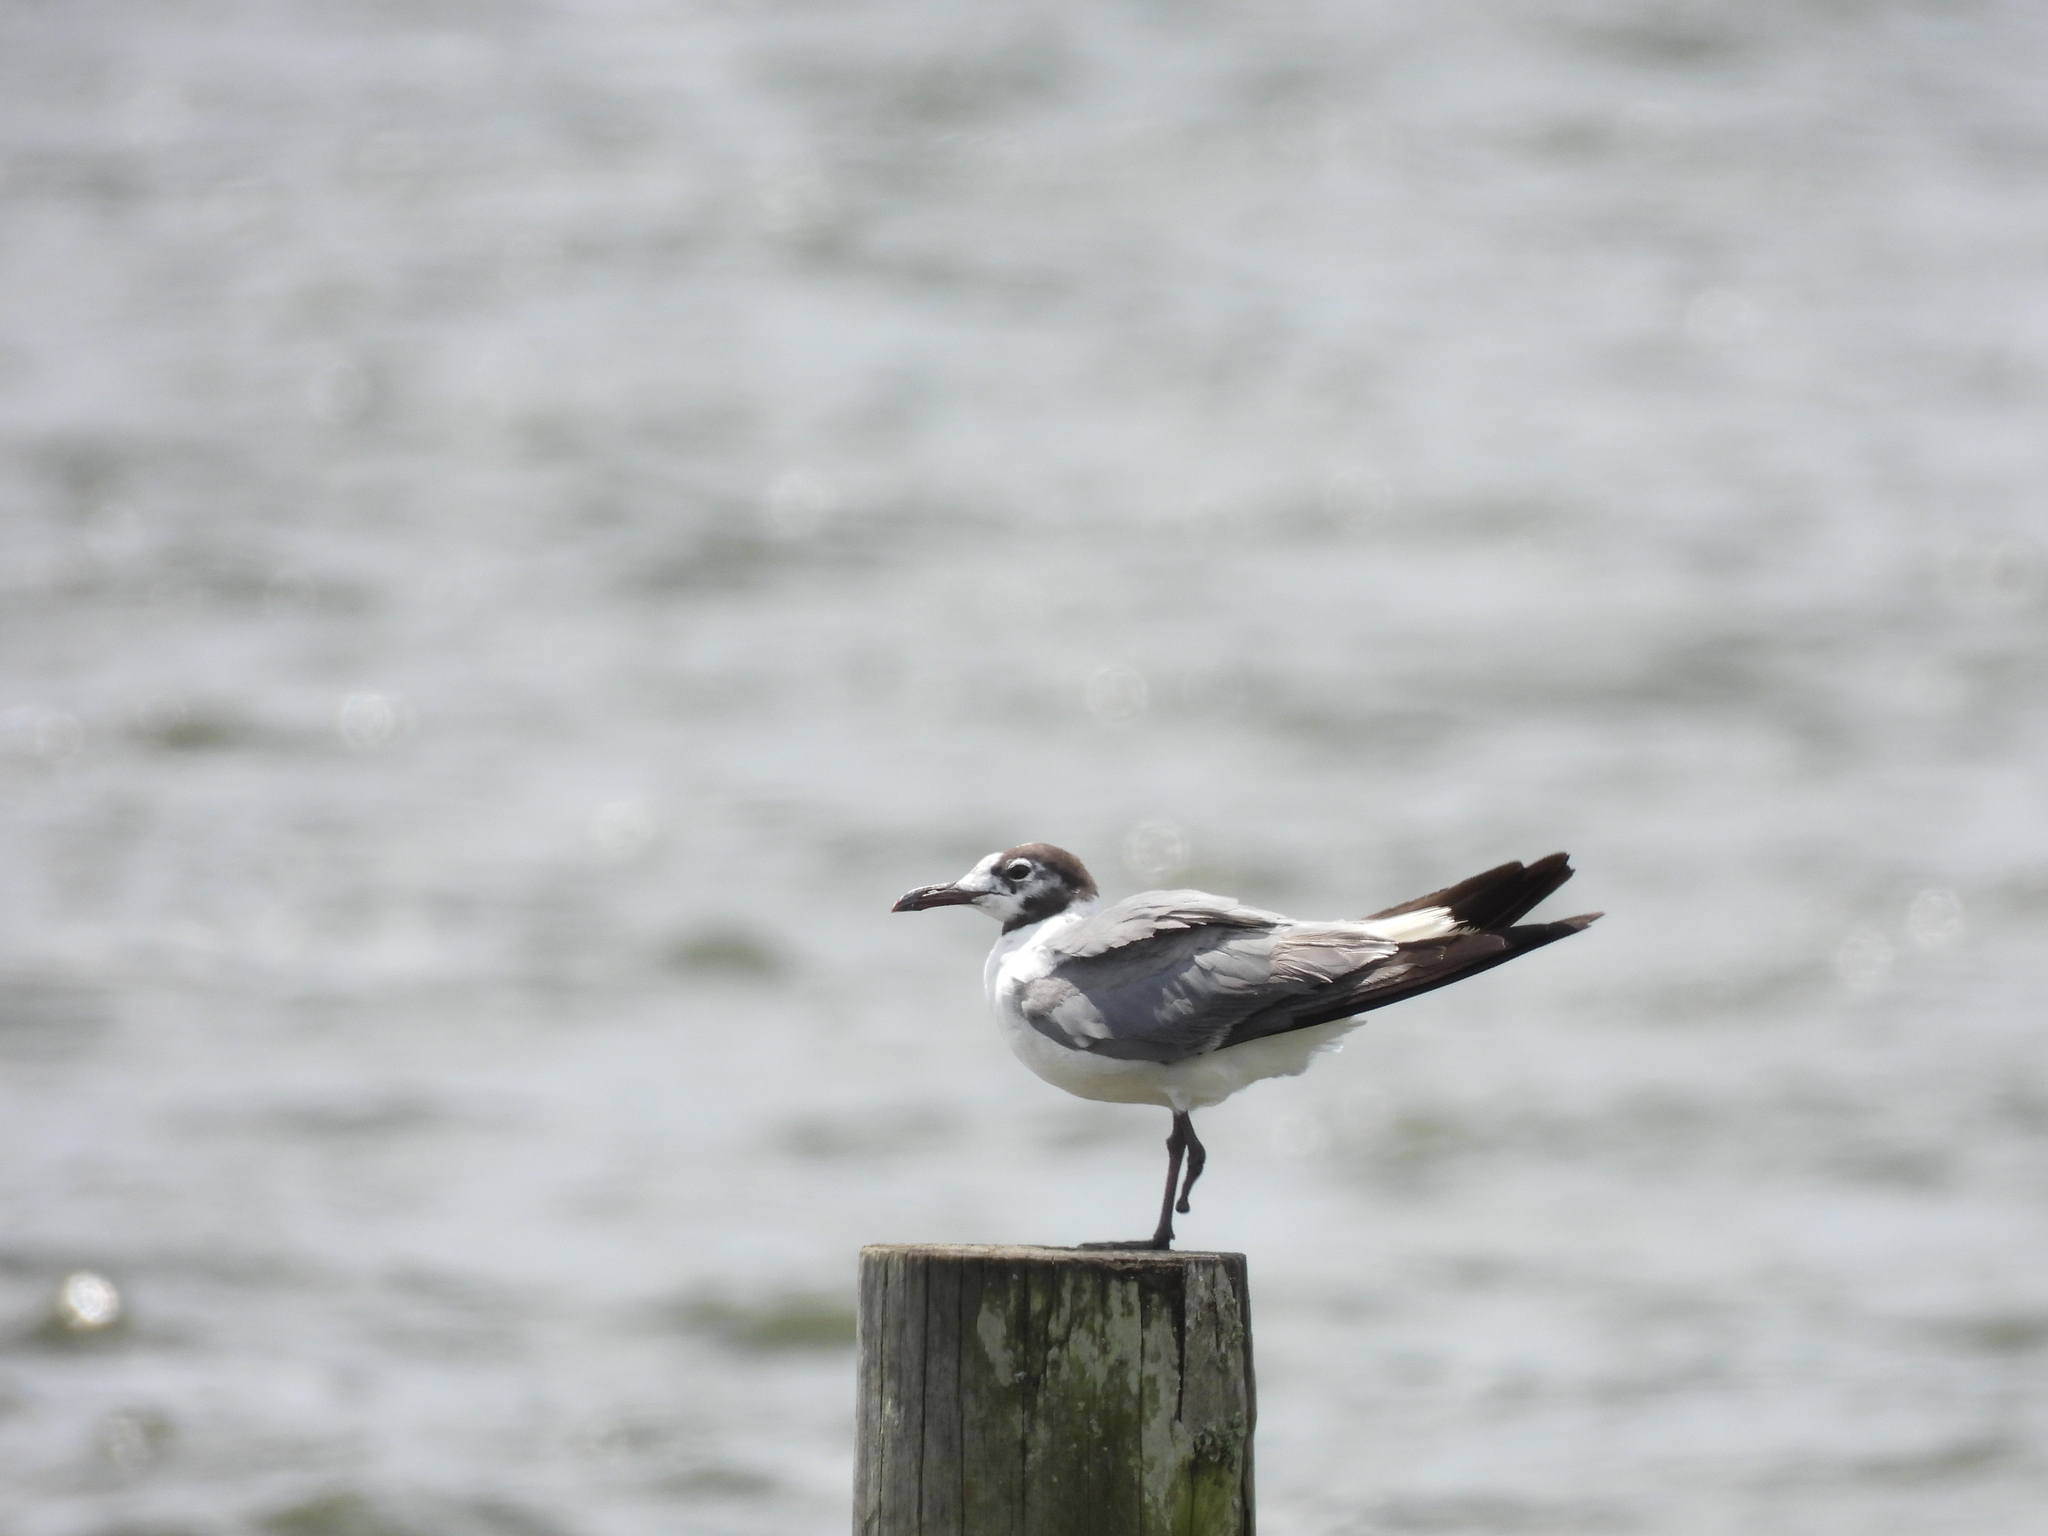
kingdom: Animalia
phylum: Chordata
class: Aves
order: Charadriiformes
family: Laridae
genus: Leucophaeus
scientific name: Leucophaeus atricilla
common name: Laughing gull
